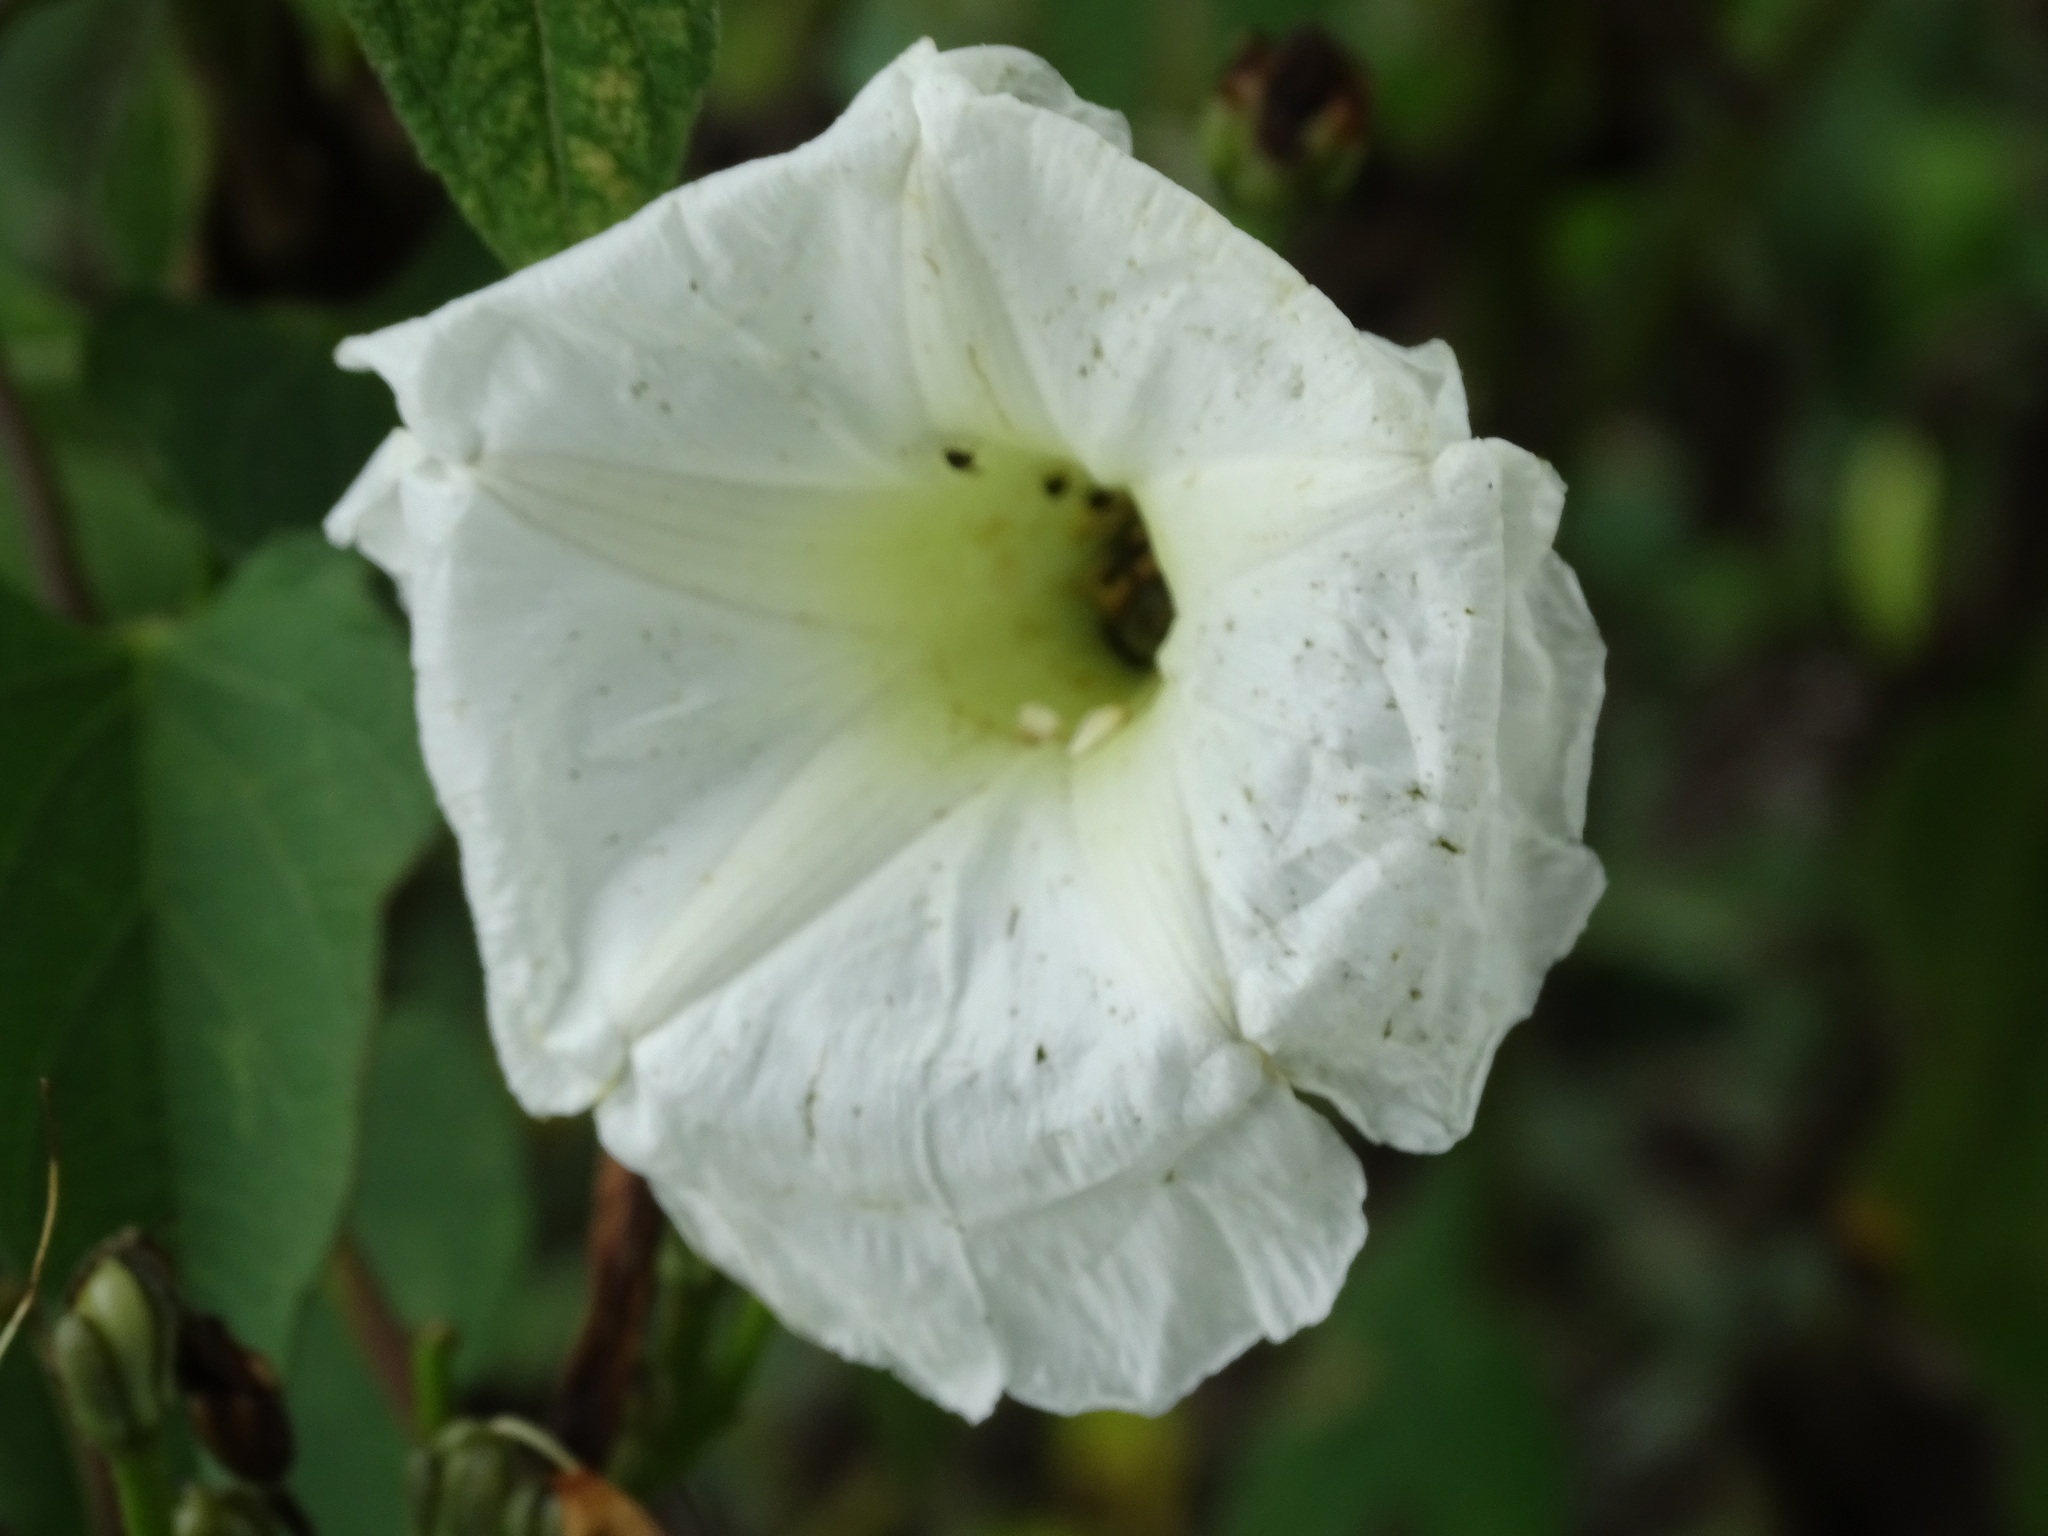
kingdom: Plantae
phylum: Tracheophyta
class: Magnoliopsida
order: Solanales
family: Convolvulaceae
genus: Ipomoea
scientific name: Ipomoea proxima
